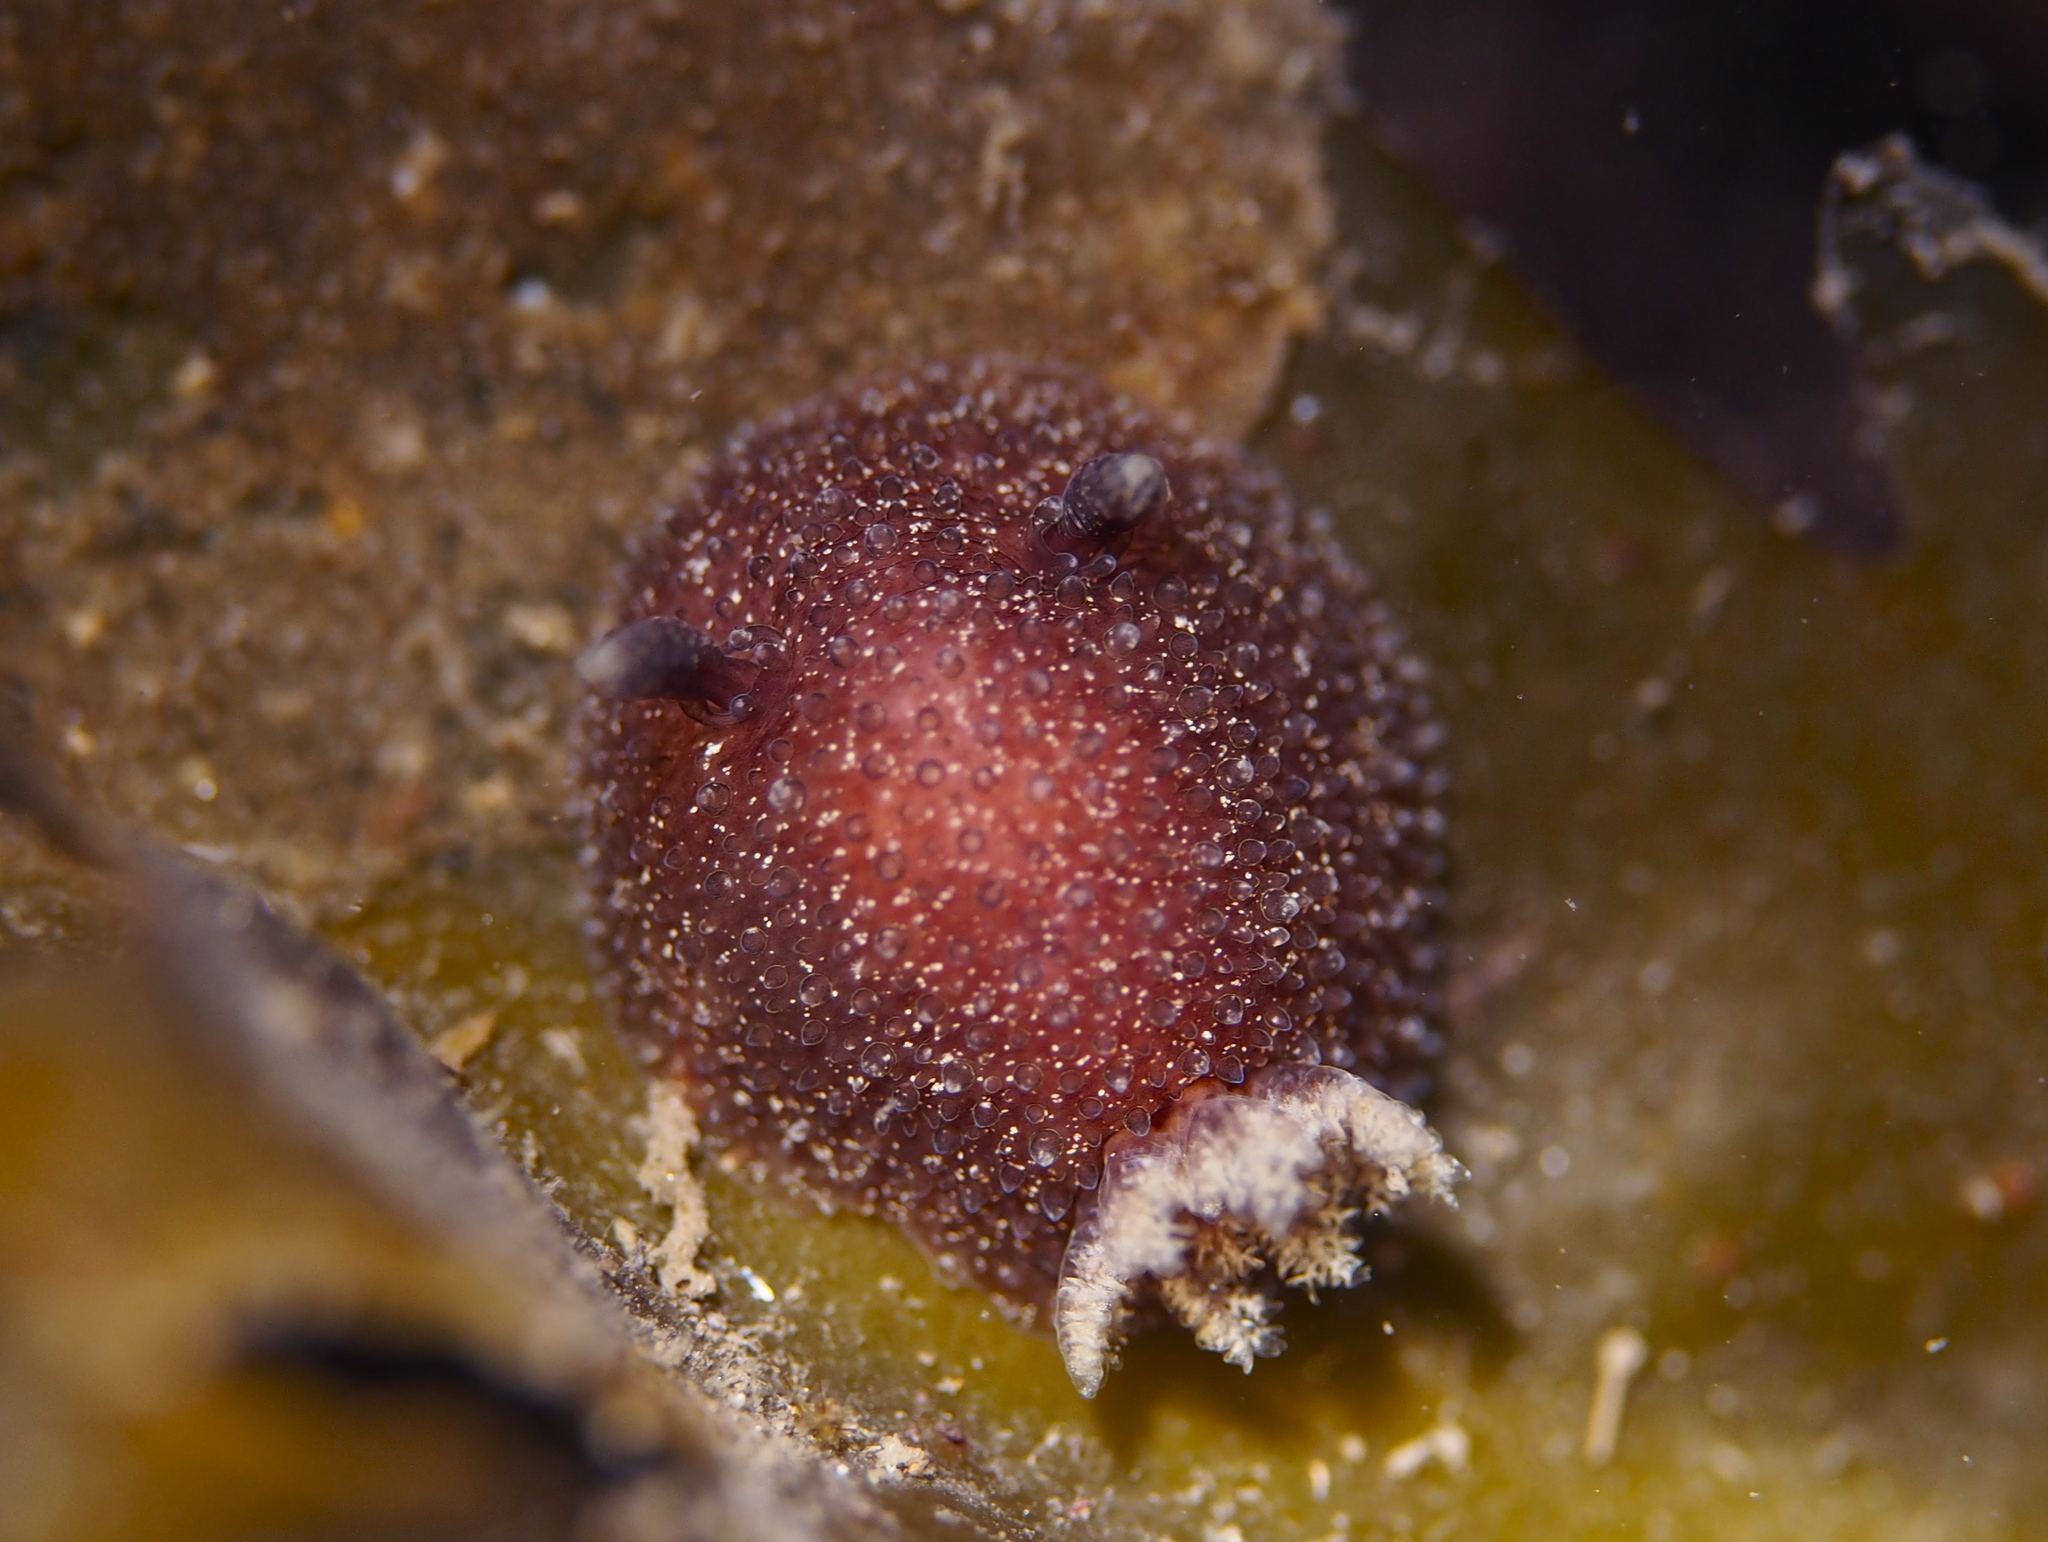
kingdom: Animalia
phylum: Mollusca
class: Gastropoda
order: Nudibranchia
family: Onchidorididae
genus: Acanthodoris
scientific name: Acanthodoris pilosa
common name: Hairy spiny doris
